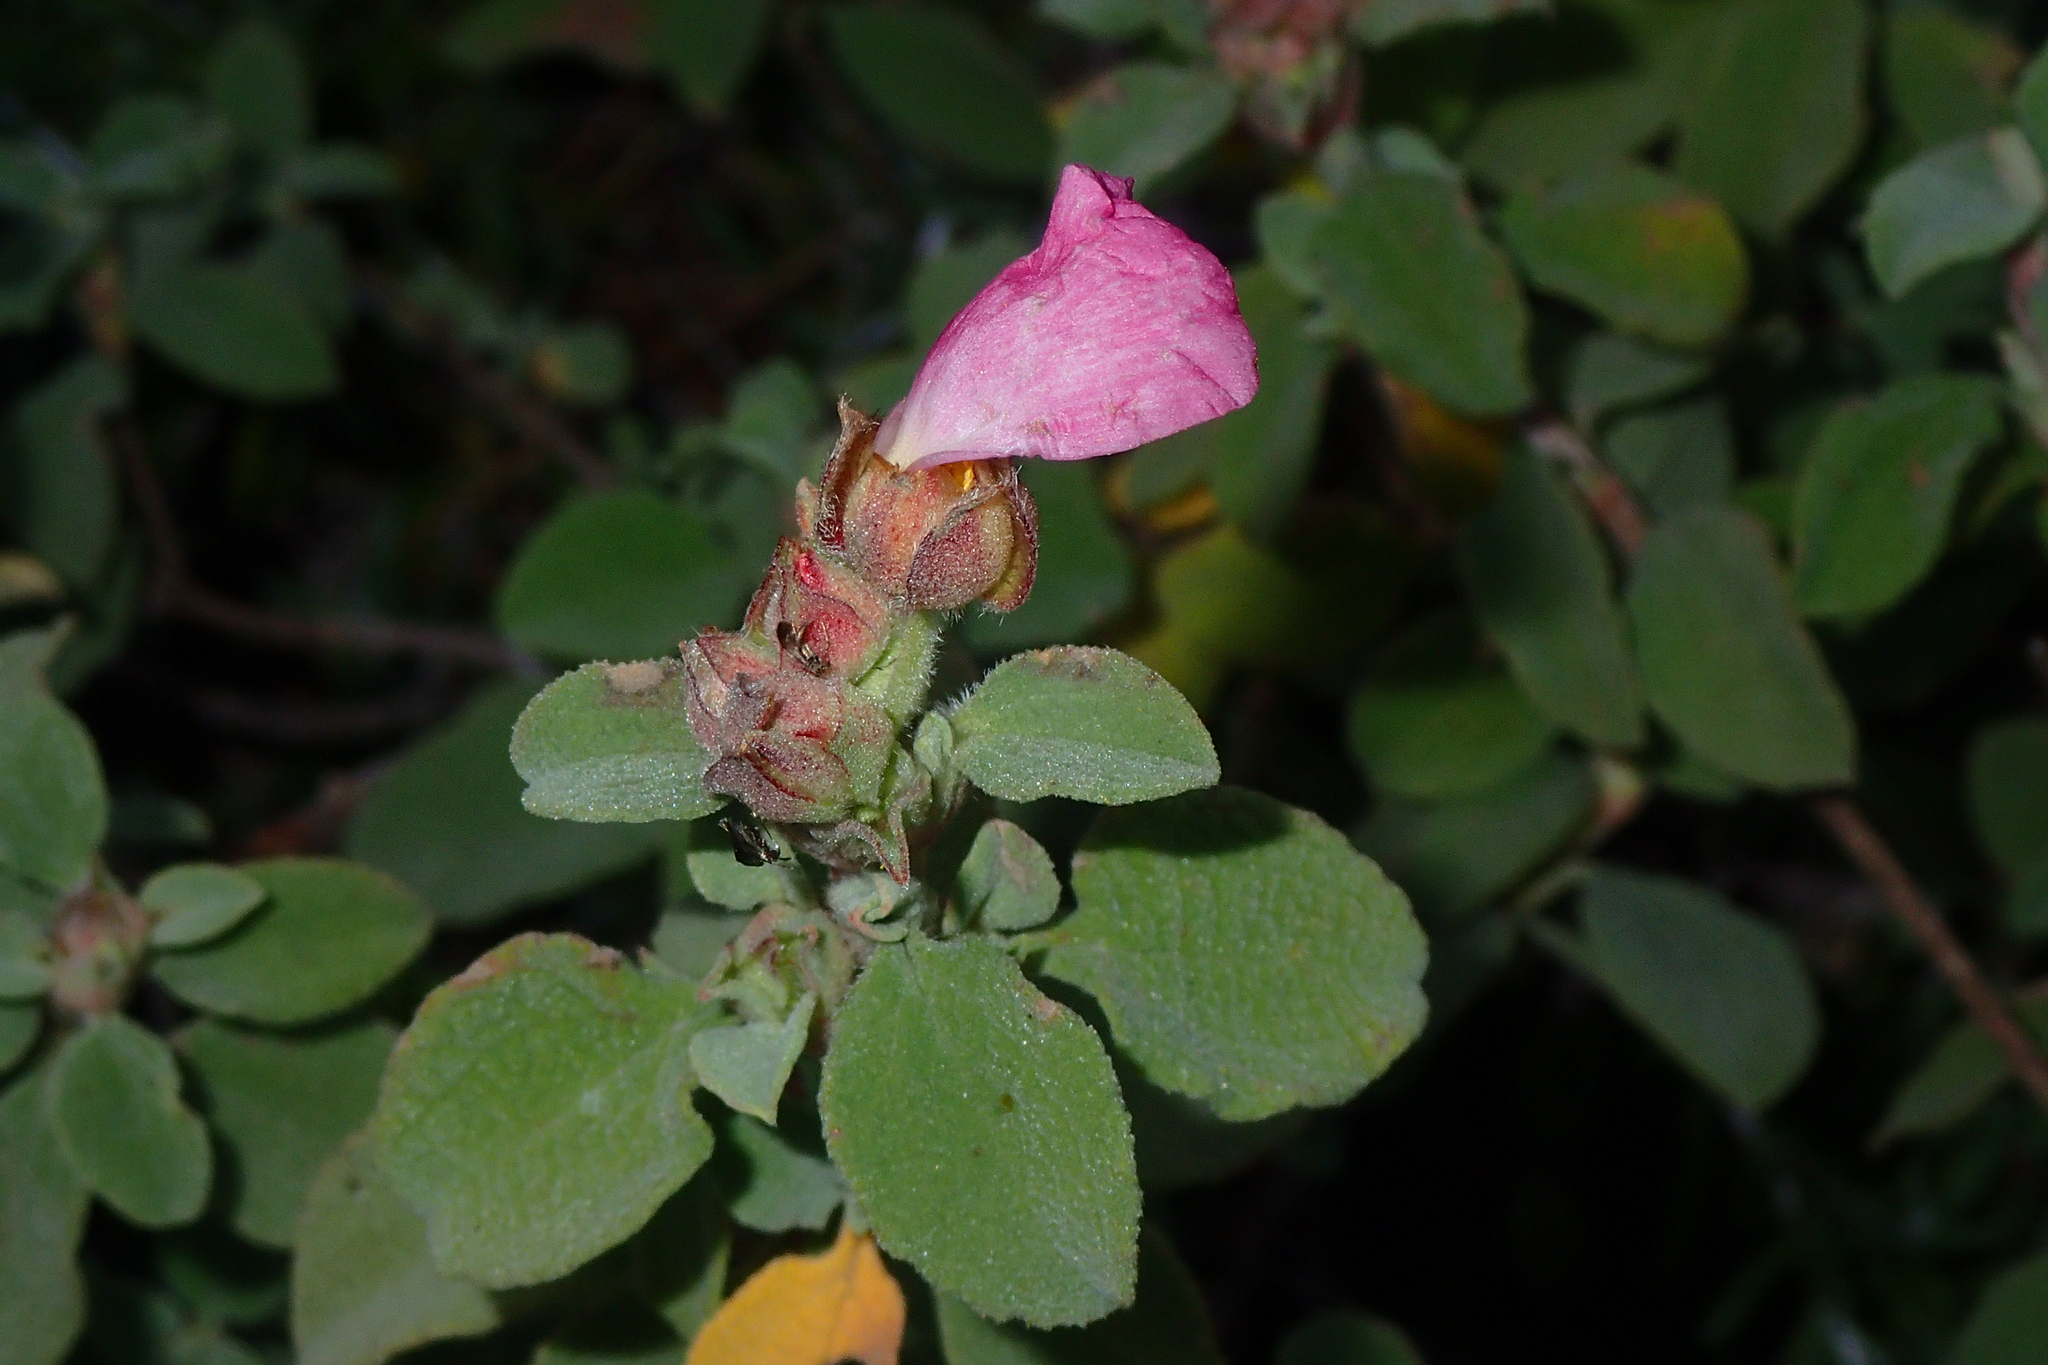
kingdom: Plantae
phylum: Tracheophyta
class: Magnoliopsida
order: Malvales
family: Cistaceae
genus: Cistus
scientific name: Cistus parviflorus
